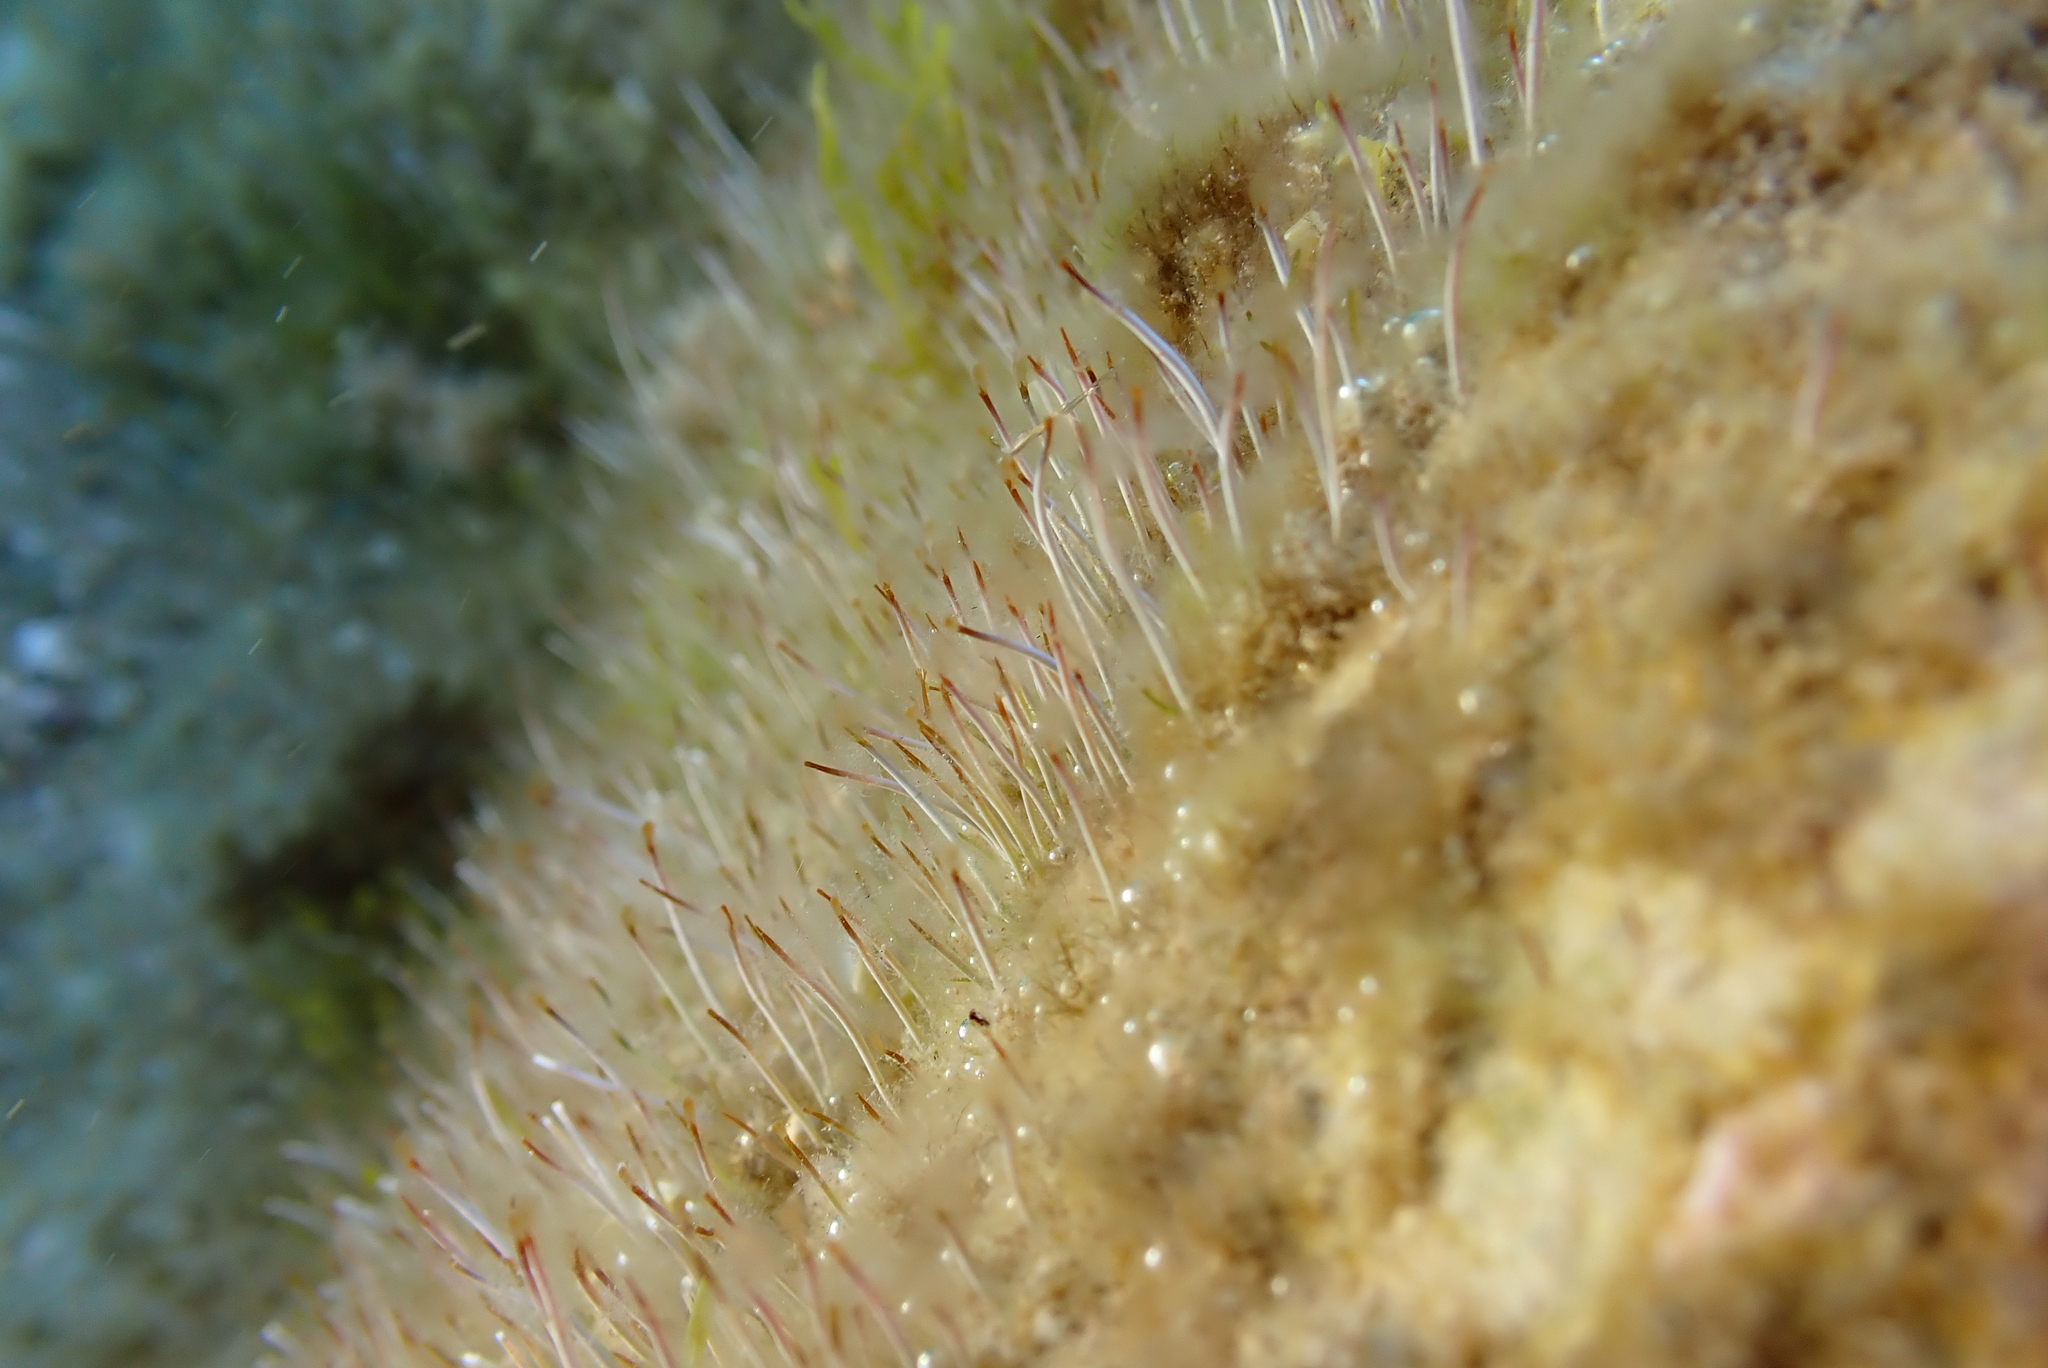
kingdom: Plantae
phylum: Chlorophyta
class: Ulvophyceae
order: Dasycladales
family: Polyphysaceae
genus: Acetabularia
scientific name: Acetabularia acetabulum
